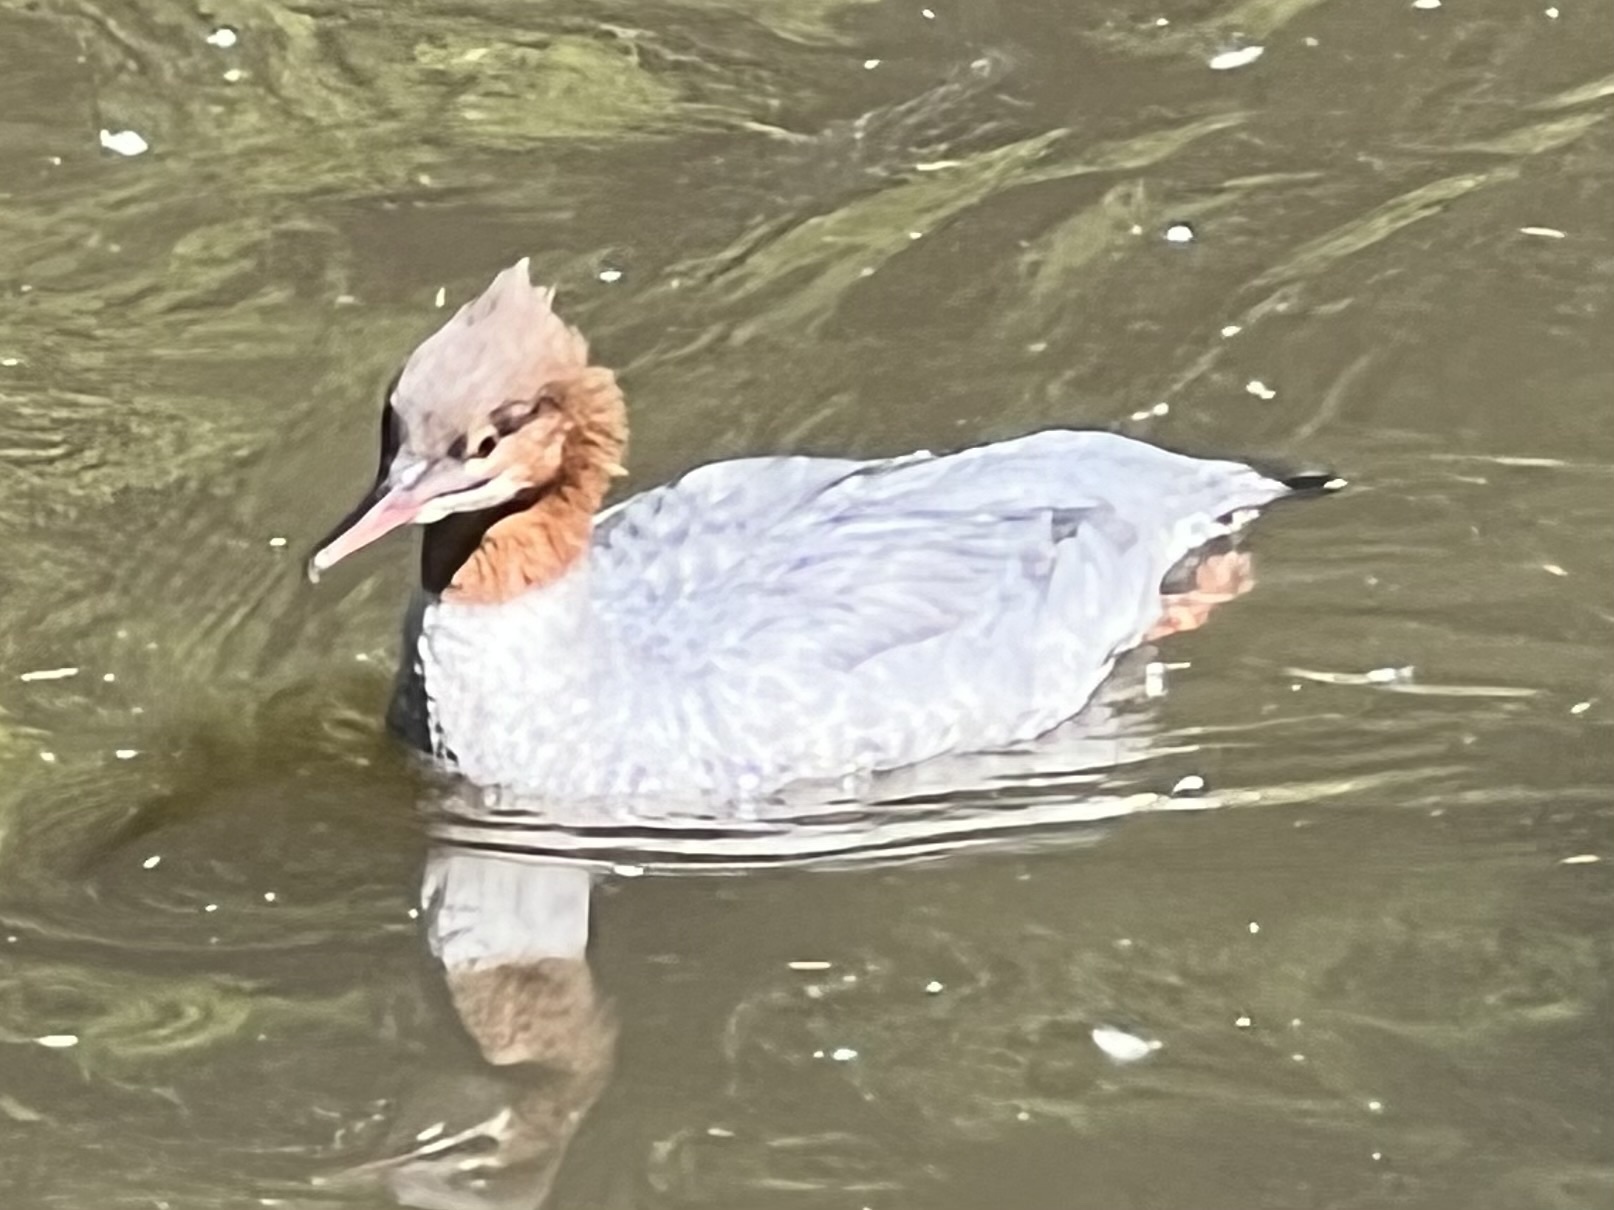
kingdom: Animalia
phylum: Chordata
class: Aves
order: Anseriformes
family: Anatidae
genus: Mergus
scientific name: Mergus merganser
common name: Common merganser
